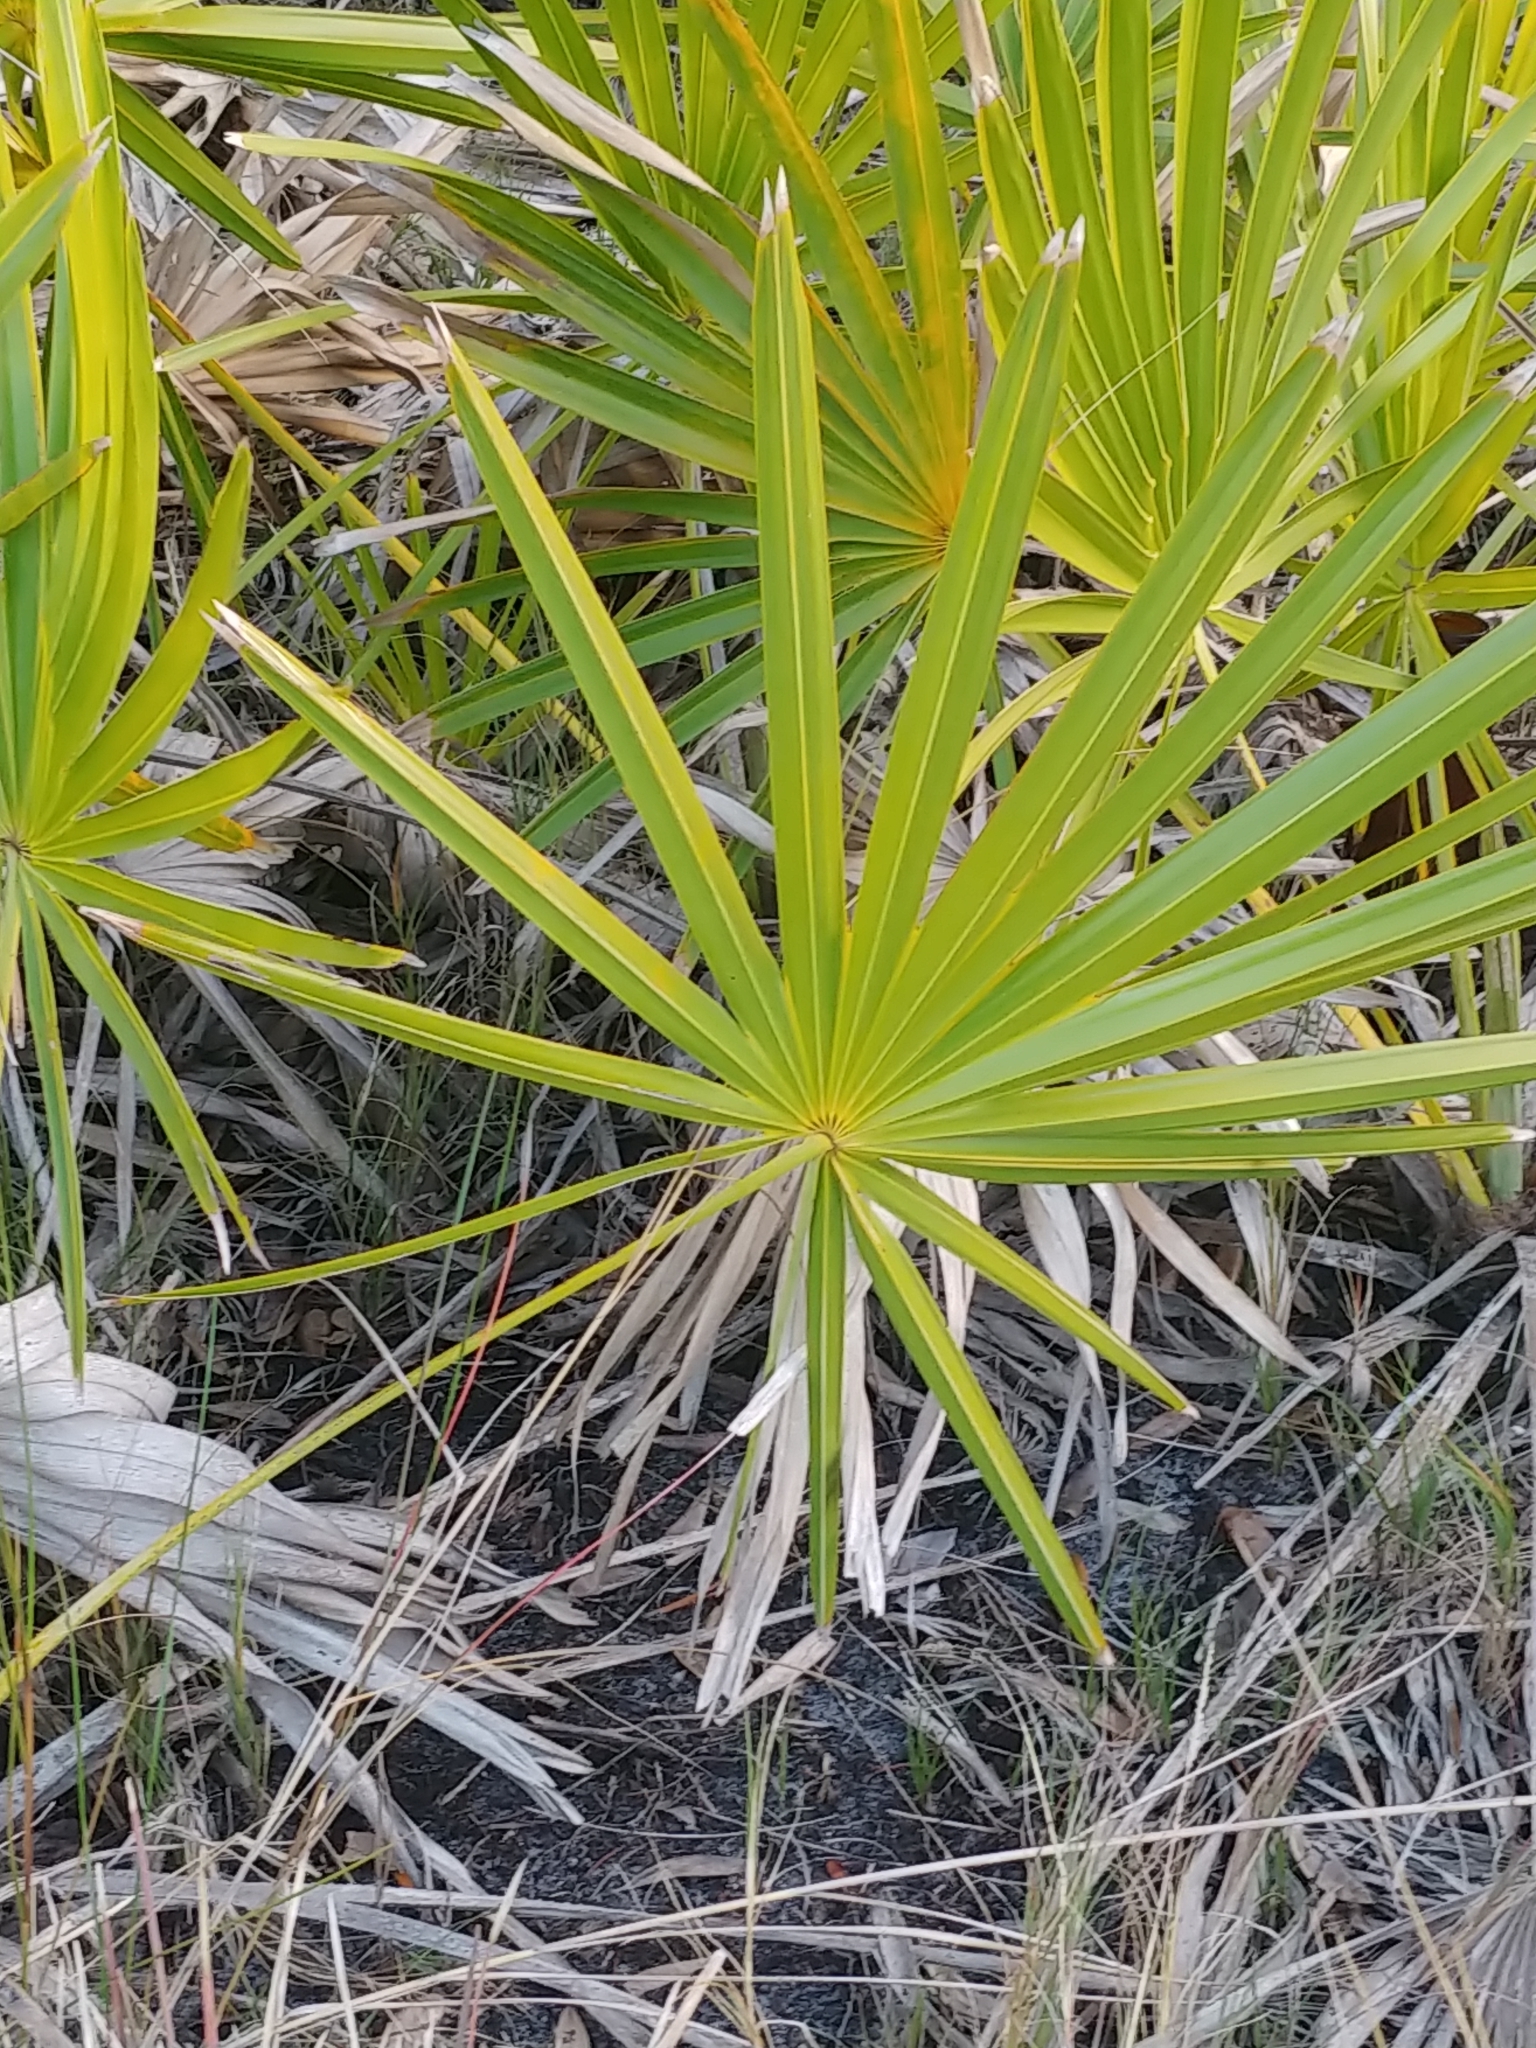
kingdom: Plantae
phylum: Tracheophyta
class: Liliopsida
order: Arecales
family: Arecaceae
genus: Serenoa
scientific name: Serenoa repens
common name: Saw-palmetto
